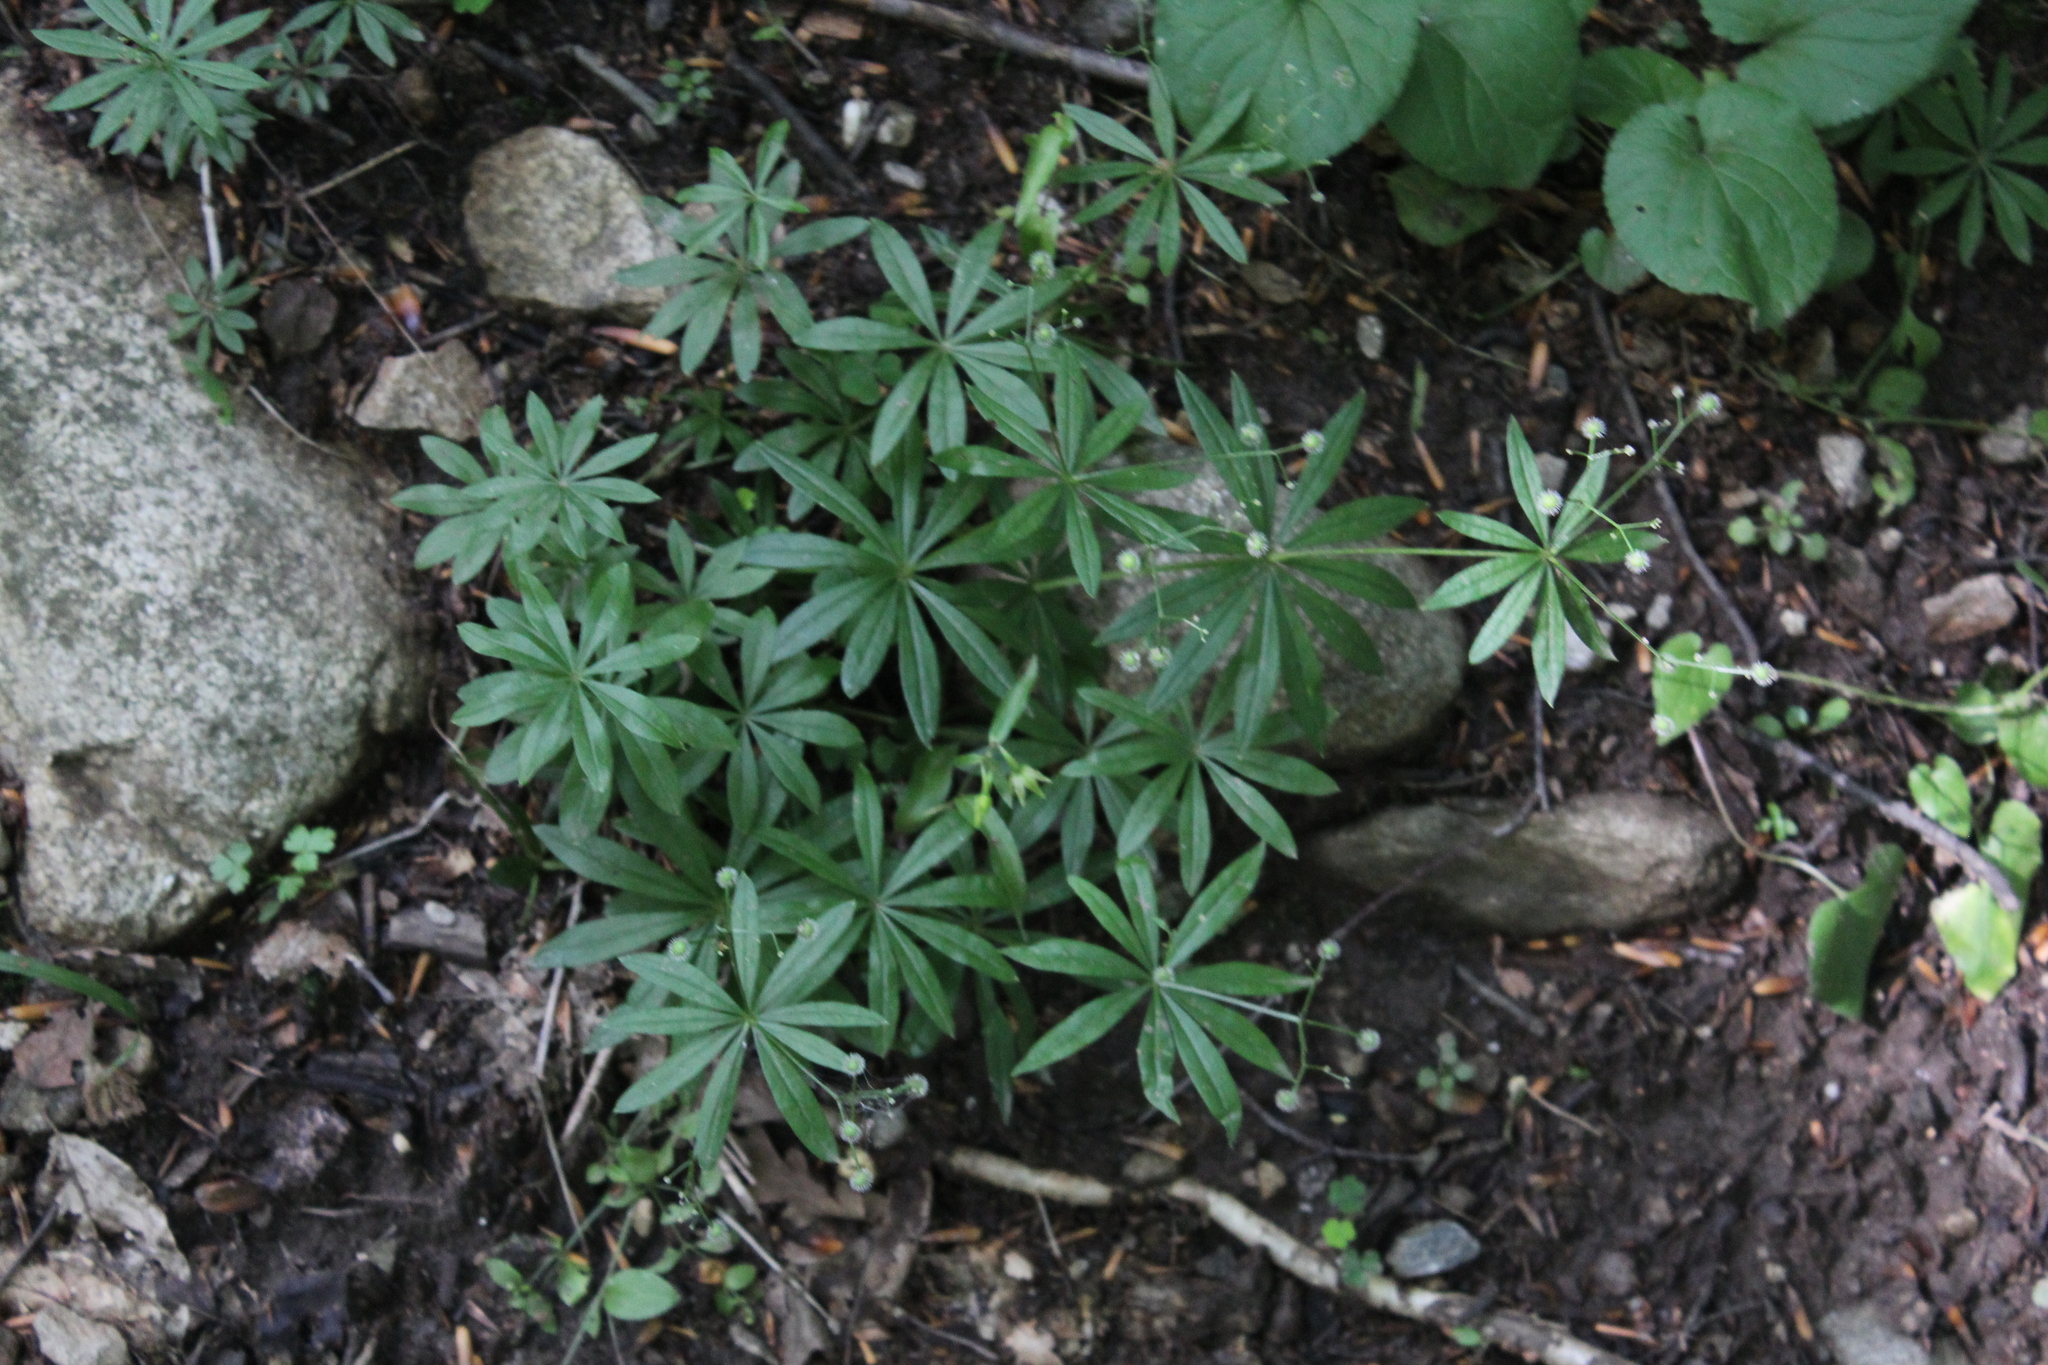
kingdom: Plantae
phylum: Tracheophyta
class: Magnoliopsida
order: Gentianales
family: Rubiaceae
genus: Galium
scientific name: Galium odoratum
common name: Sweet woodruff
